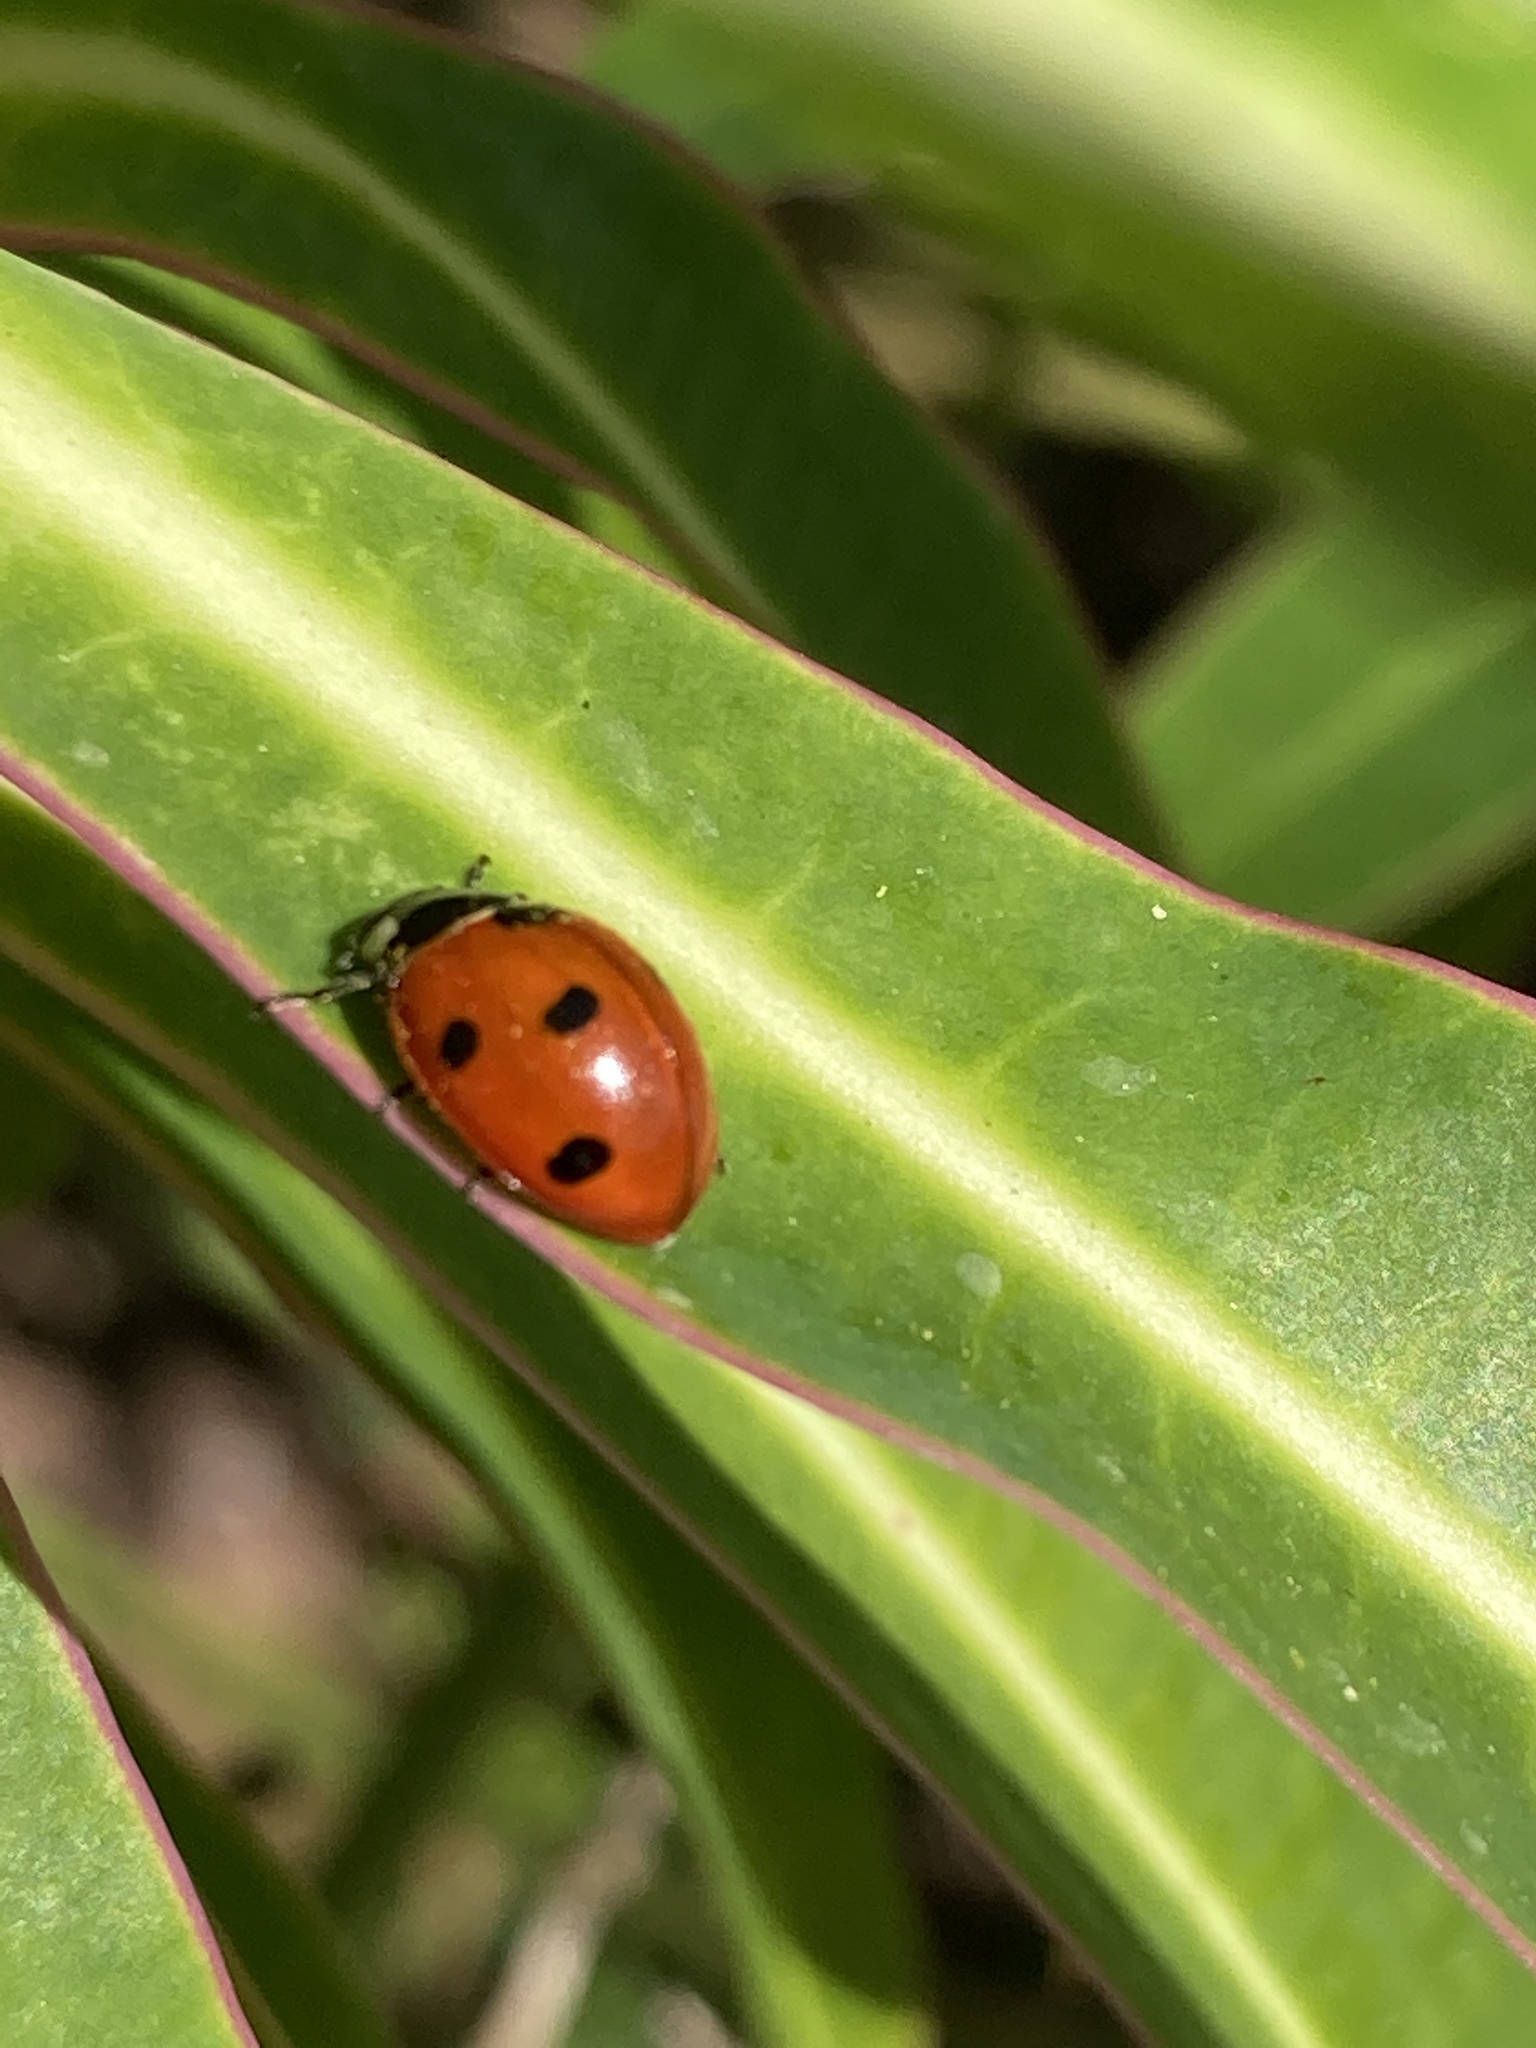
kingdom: Animalia
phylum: Arthropoda
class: Insecta
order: Coleoptera
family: Coccinellidae
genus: Coccinella
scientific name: Coccinella septempunctata
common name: Sevenspotted lady beetle
